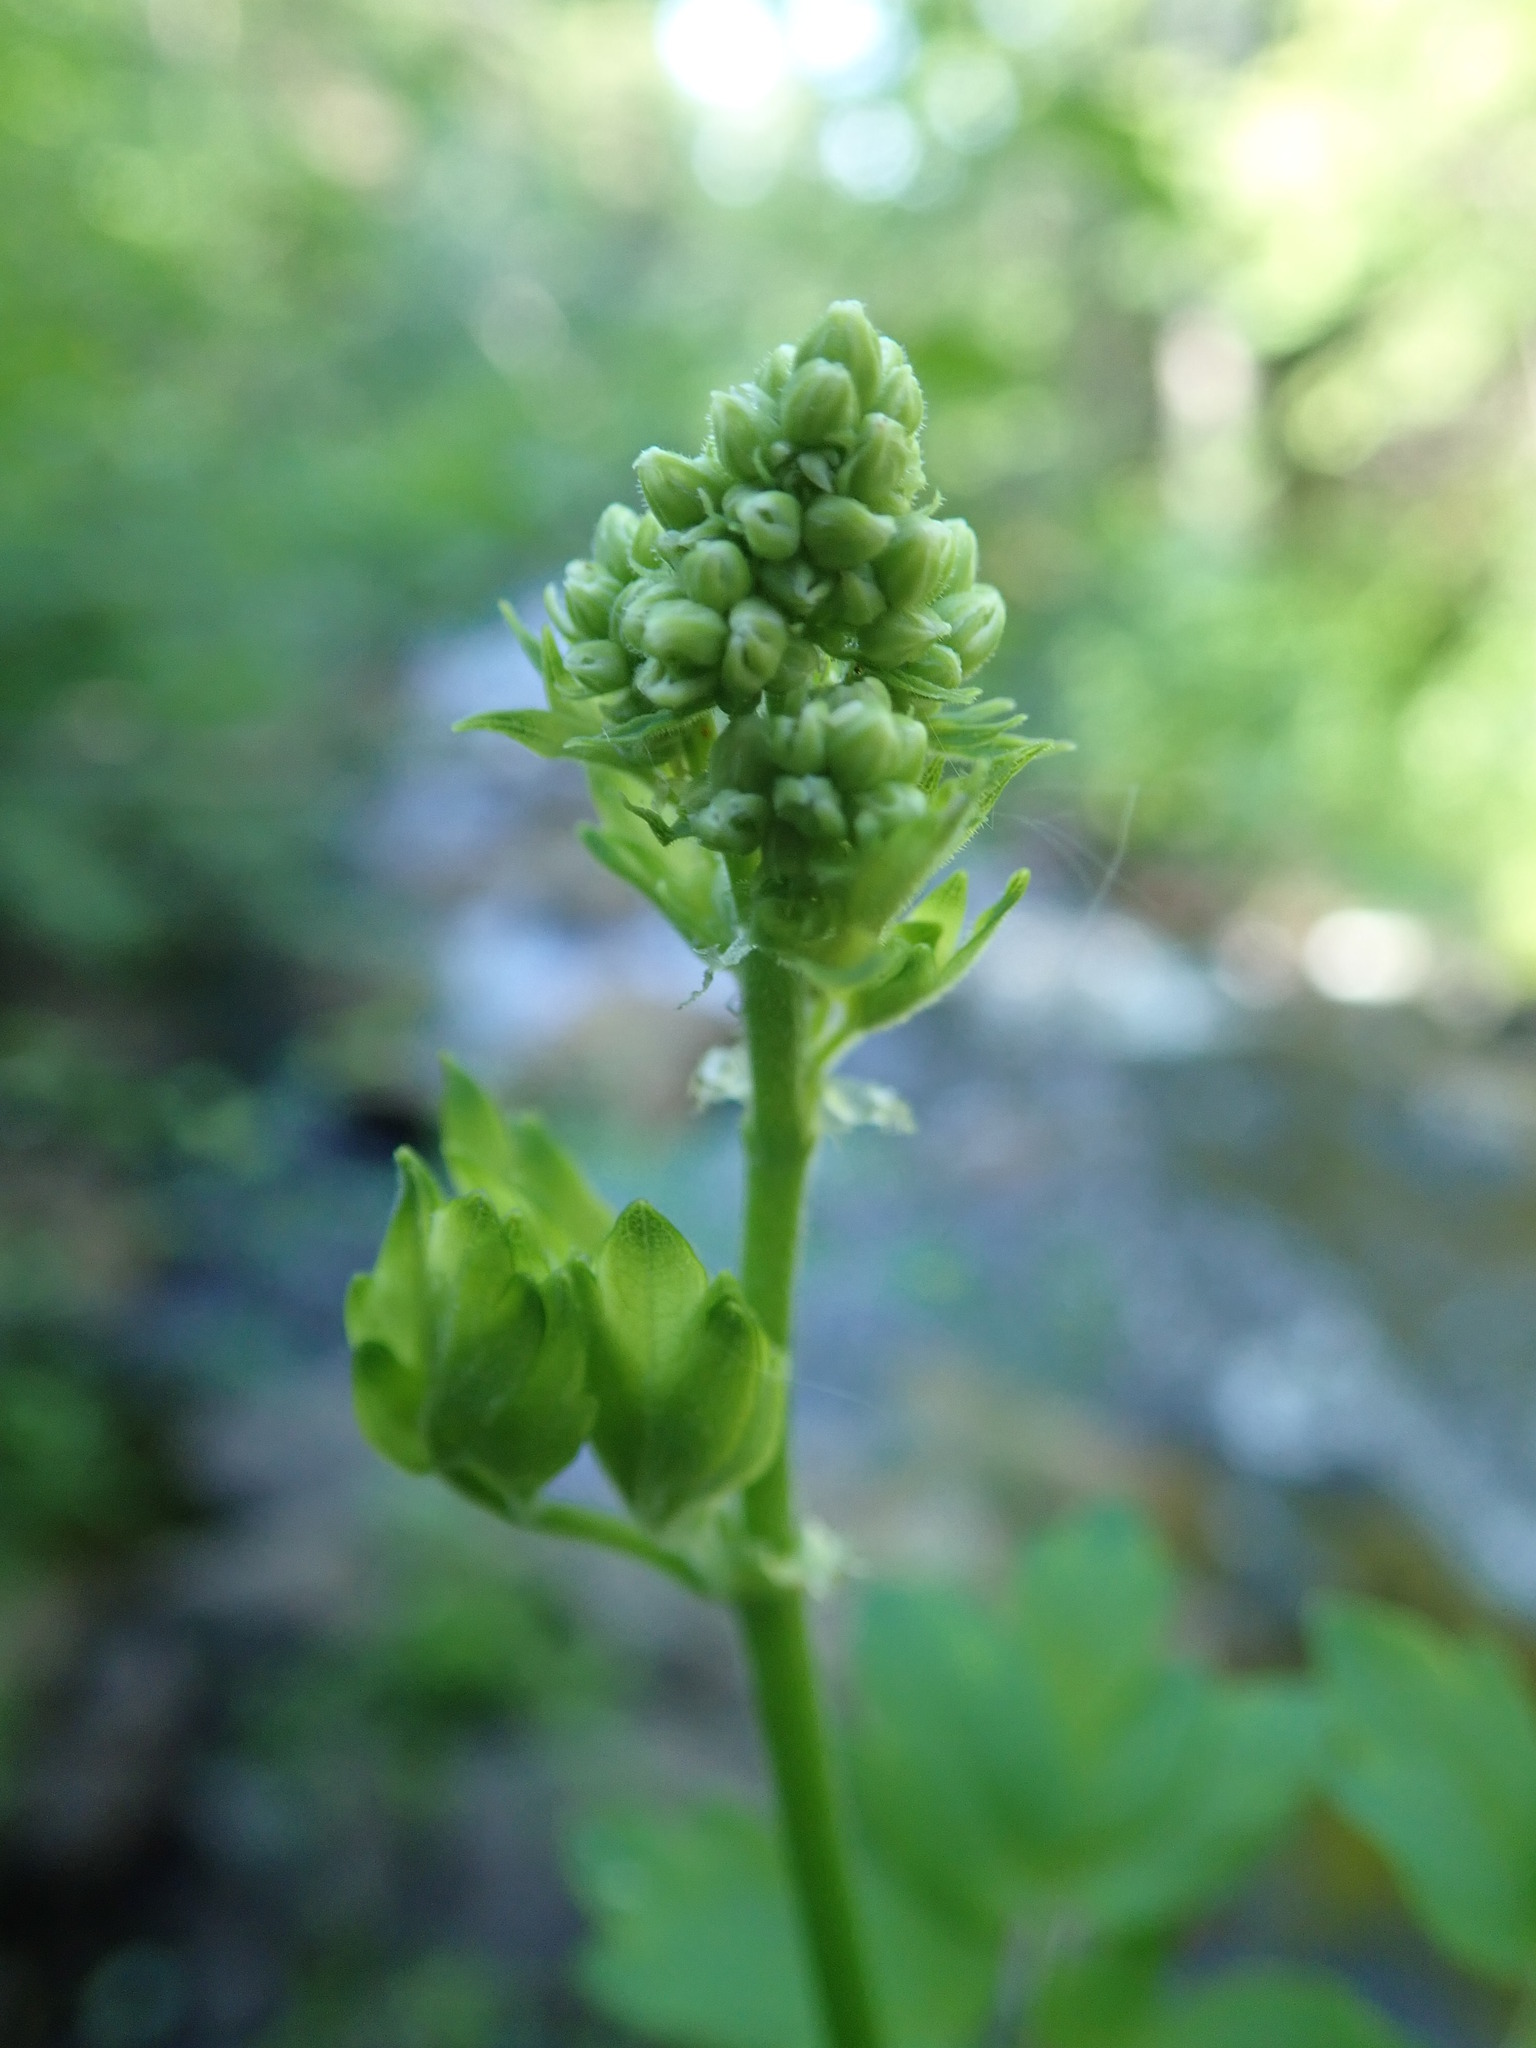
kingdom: Plantae
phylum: Tracheophyta
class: Magnoliopsida
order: Ranunculales
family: Ranunculaceae
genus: Thalictrum
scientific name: Thalictrum dasycarpum
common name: Purple meadow-rue
